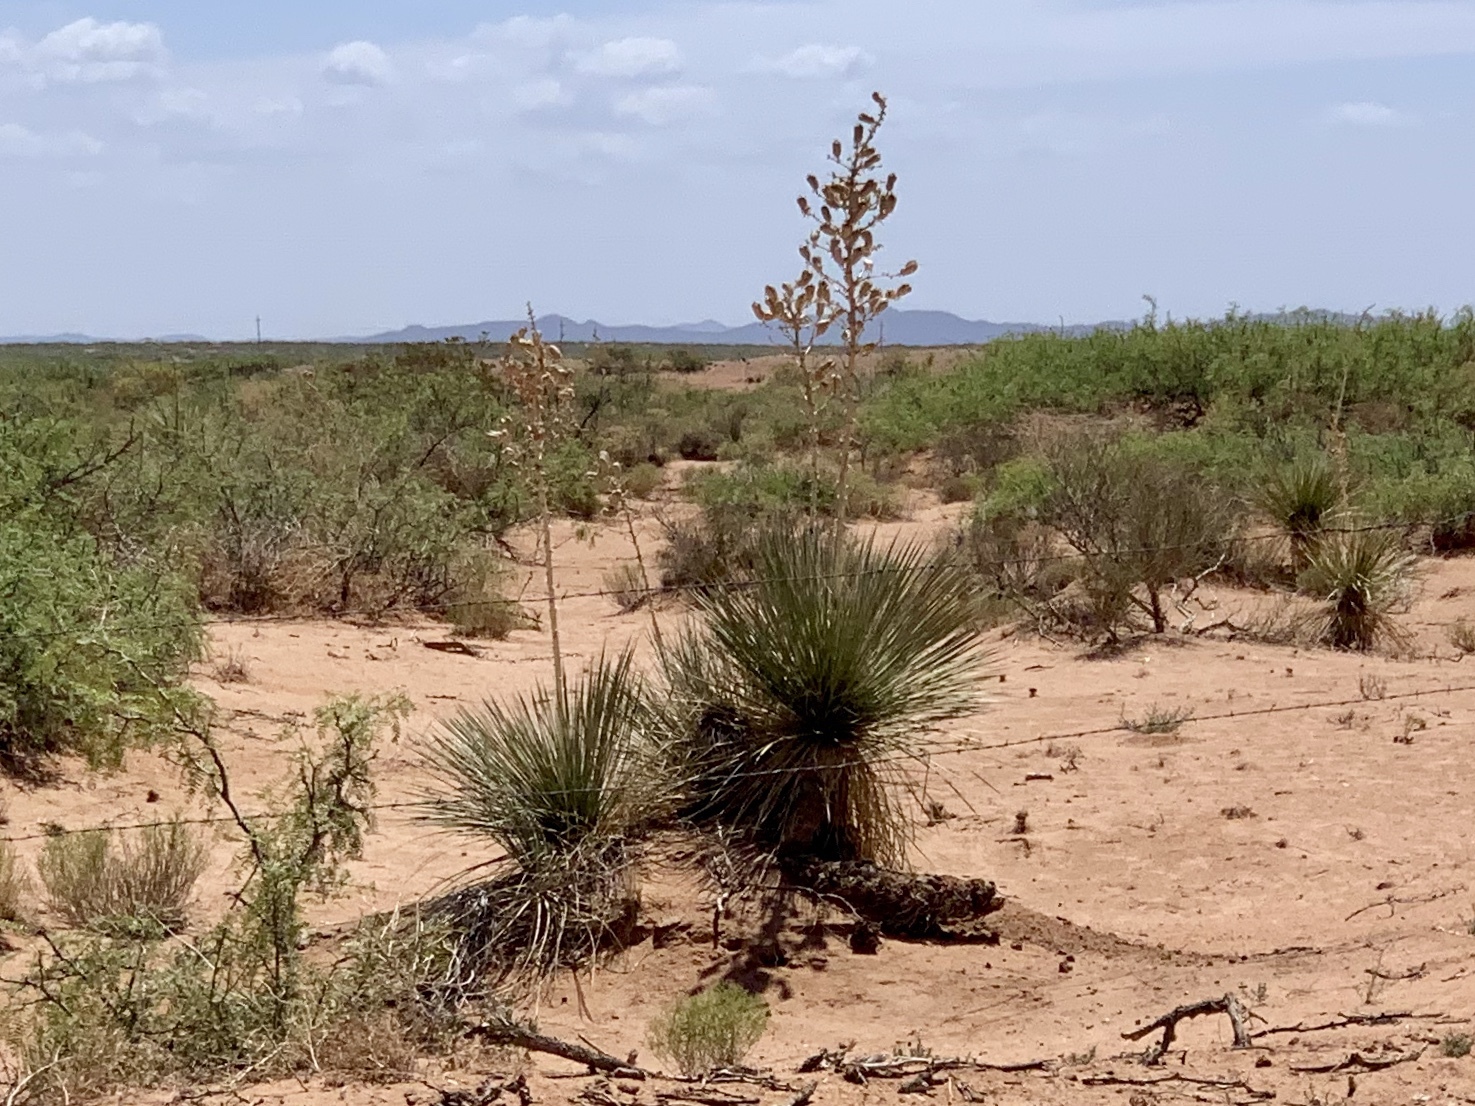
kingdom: Plantae
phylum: Tracheophyta
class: Liliopsida
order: Asparagales
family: Asparagaceae
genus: Yucca
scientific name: Yucca elata
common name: Palmella
